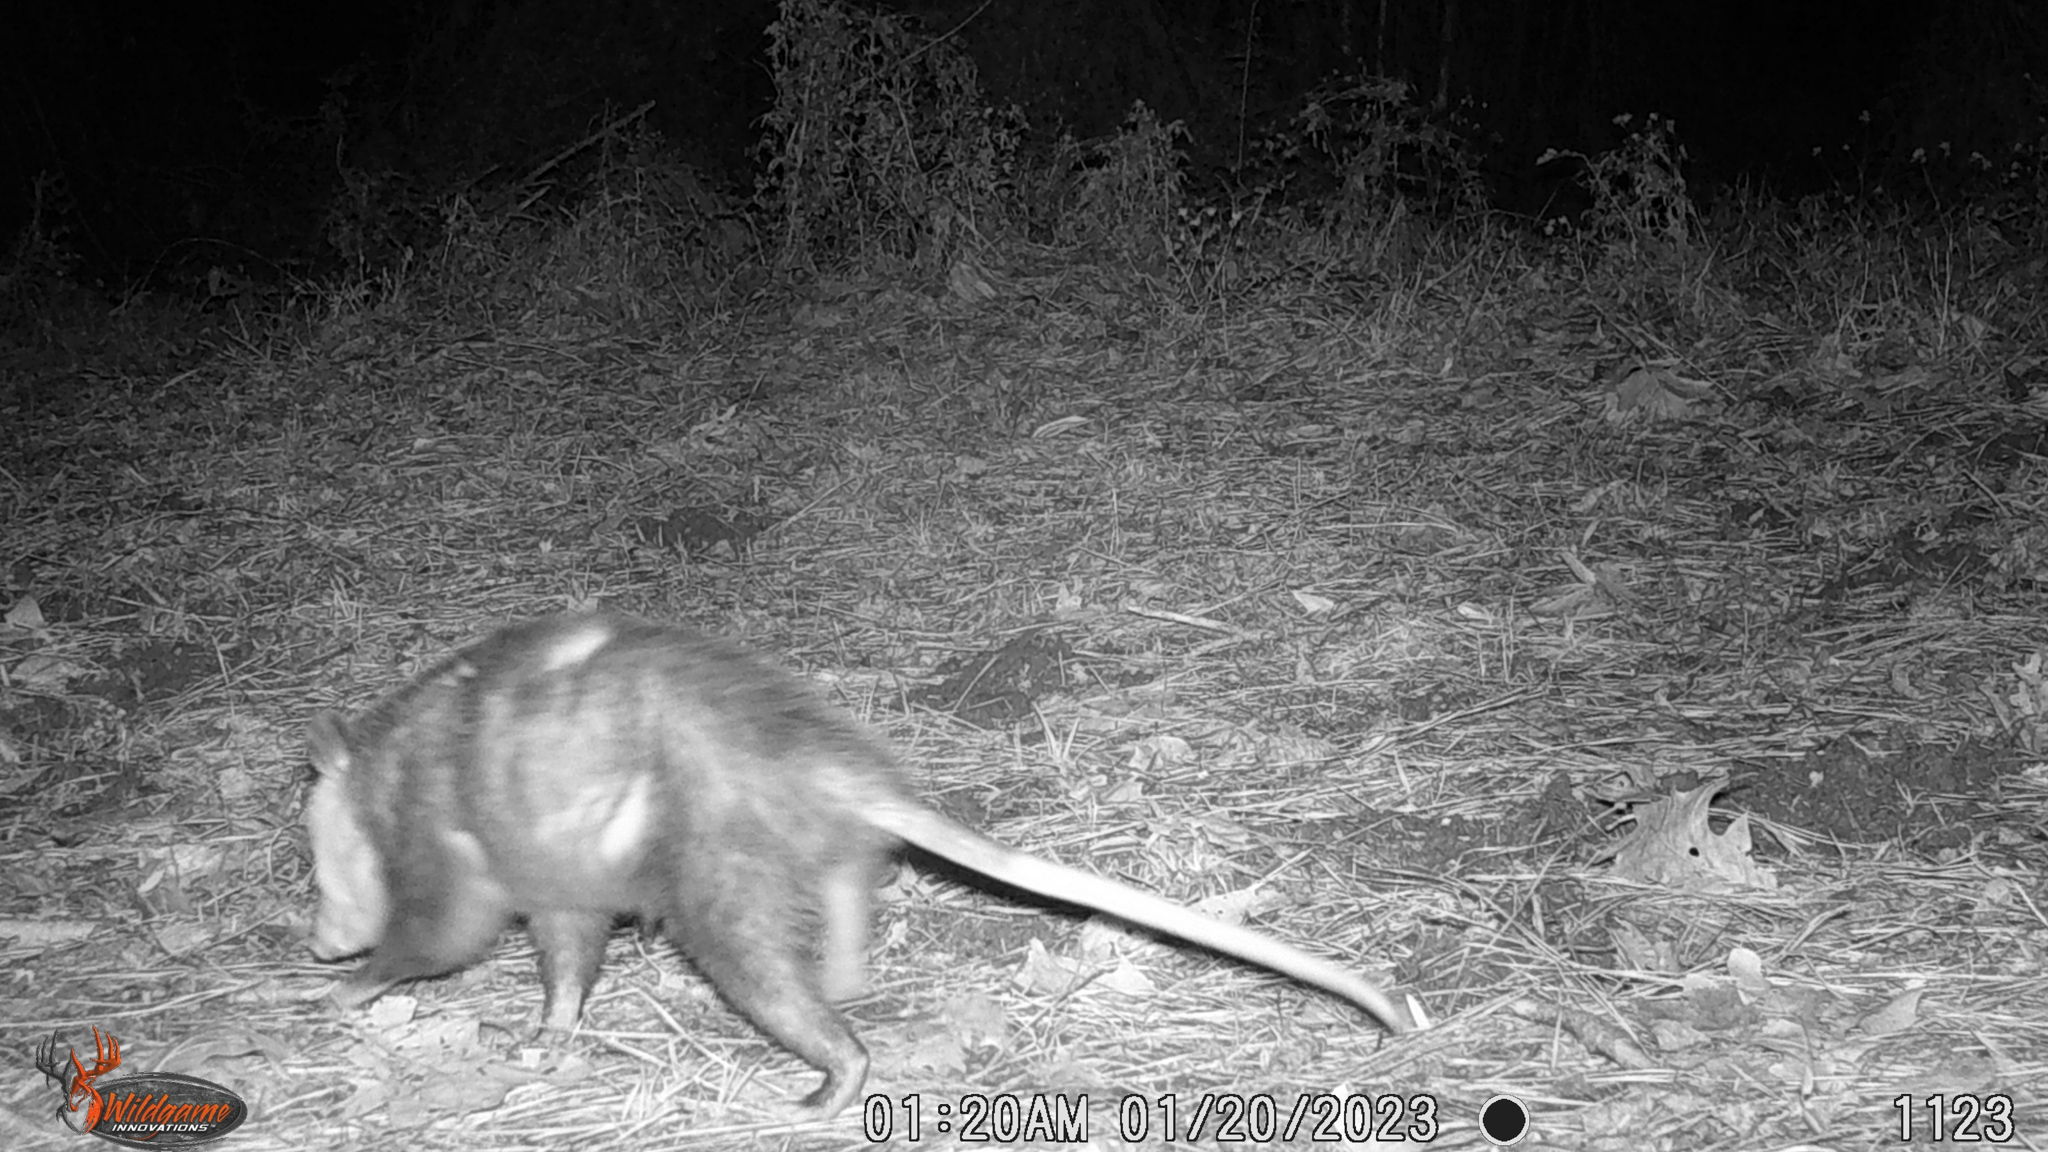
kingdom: Animalia
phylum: Chordata
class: Mammalia
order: Didelphimorphia
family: Didelphidae
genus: Didelphis
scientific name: Didelphis virginiana
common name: Virginia opossum
